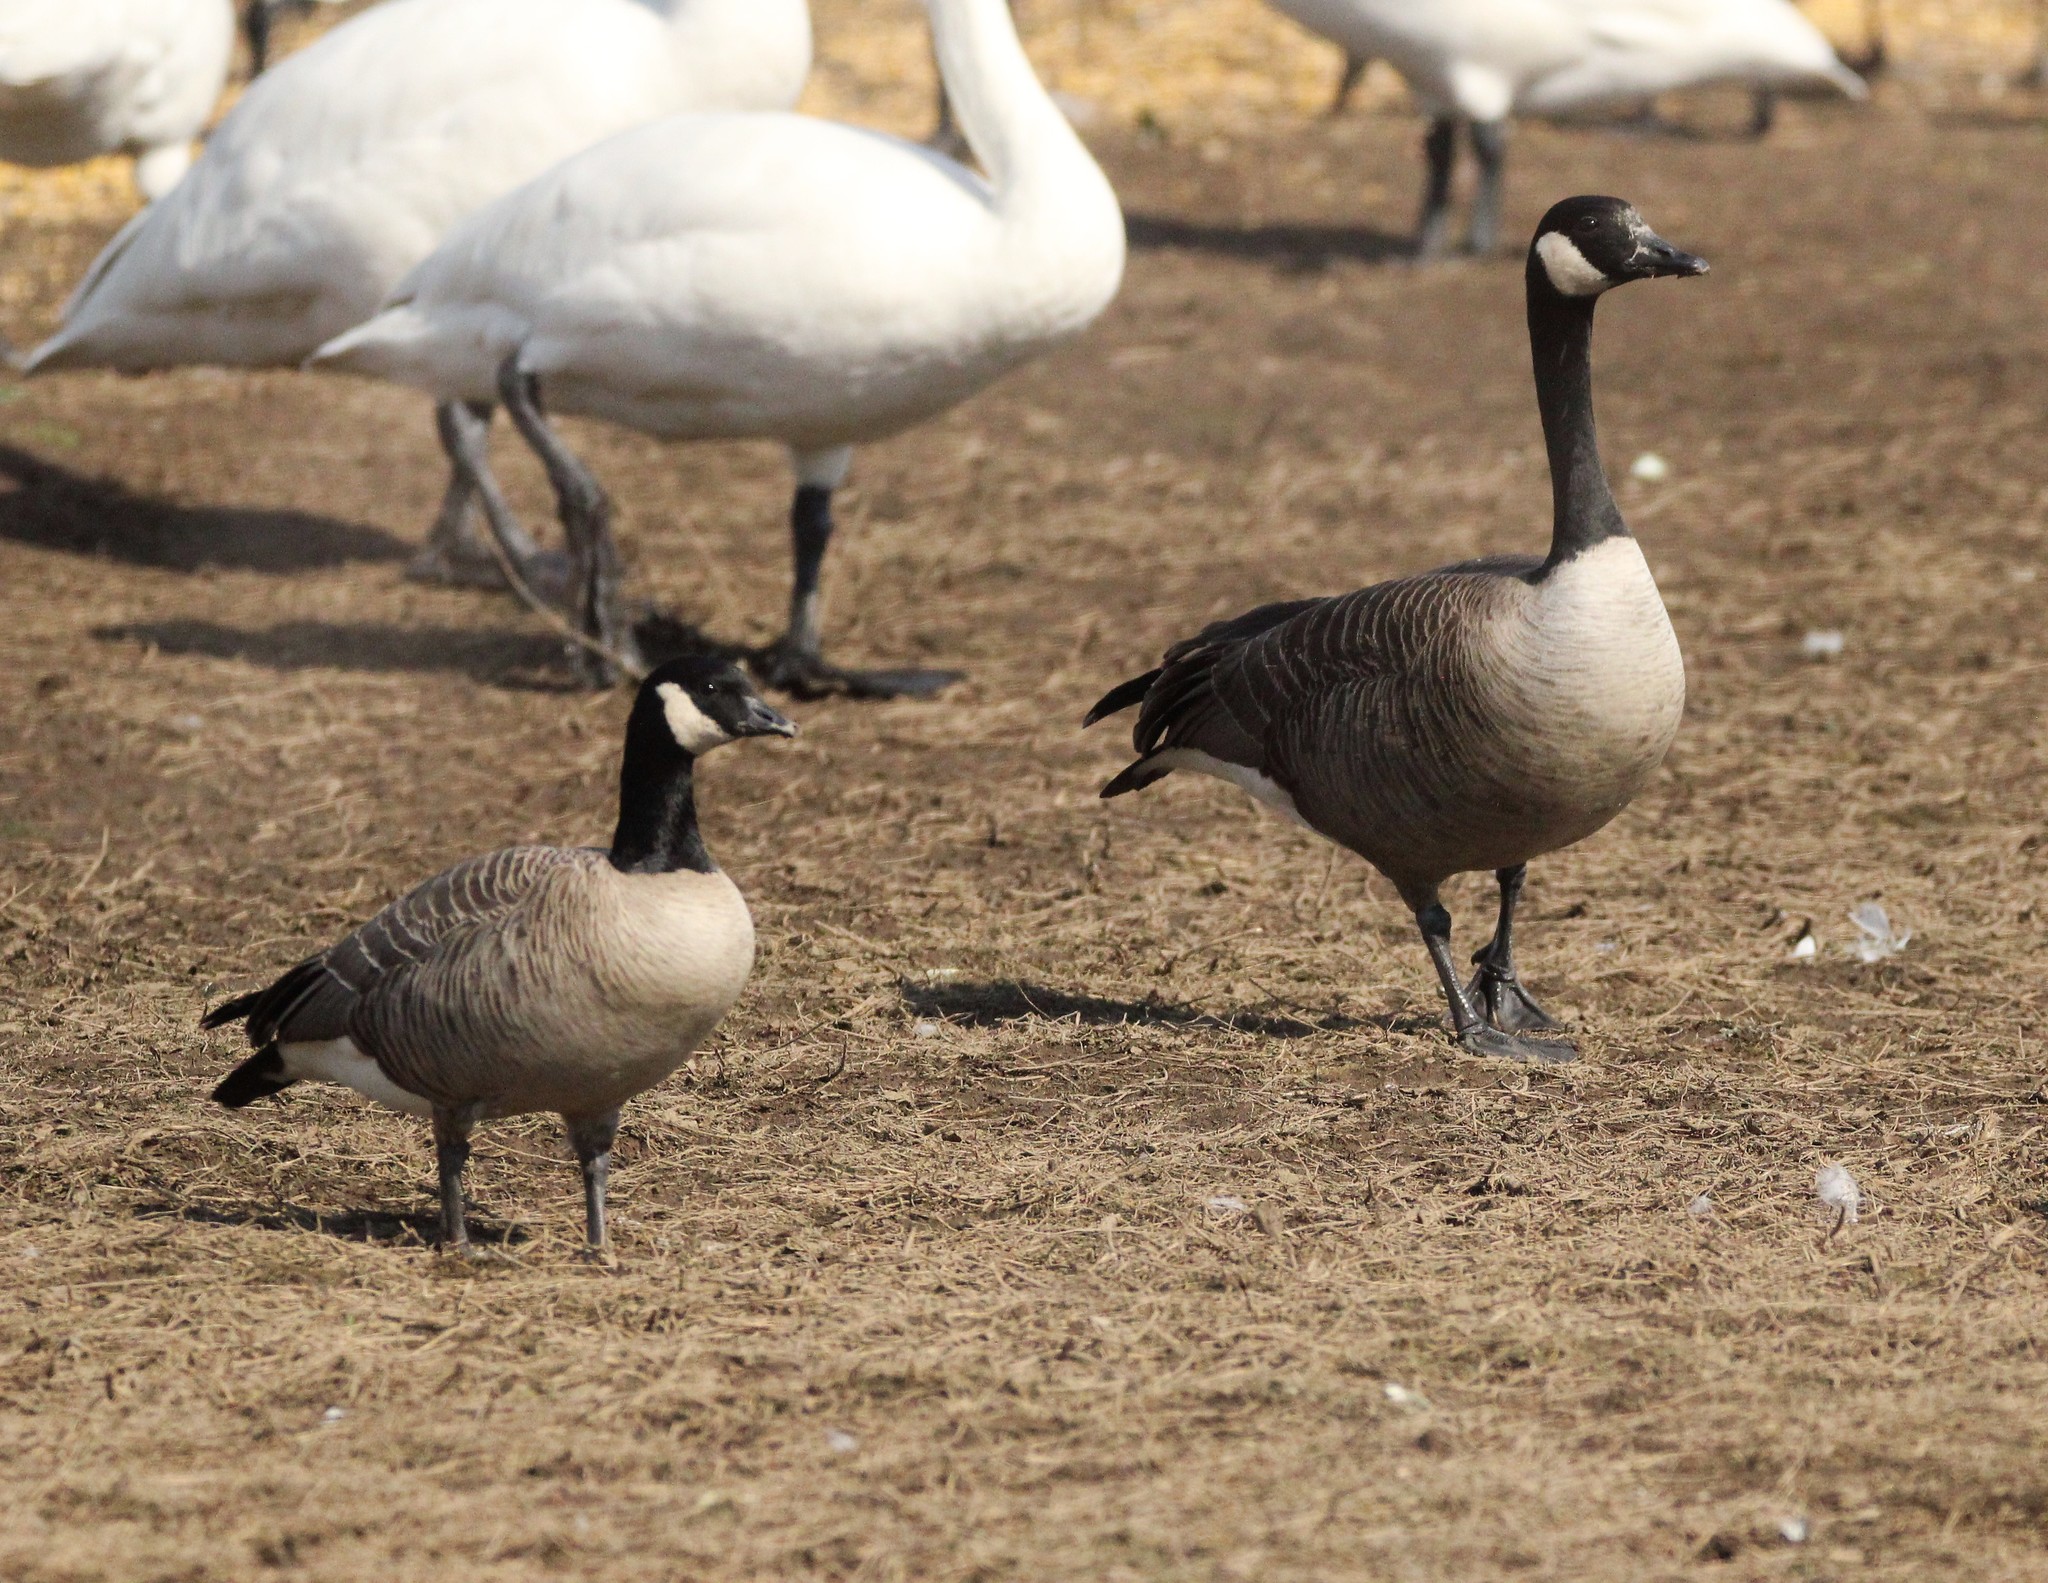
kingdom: Animalia
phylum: Chordata
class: Aves
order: Anseriformes
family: Anatidae
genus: Branta
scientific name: Branta hutchinsii
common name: Cackling goose
